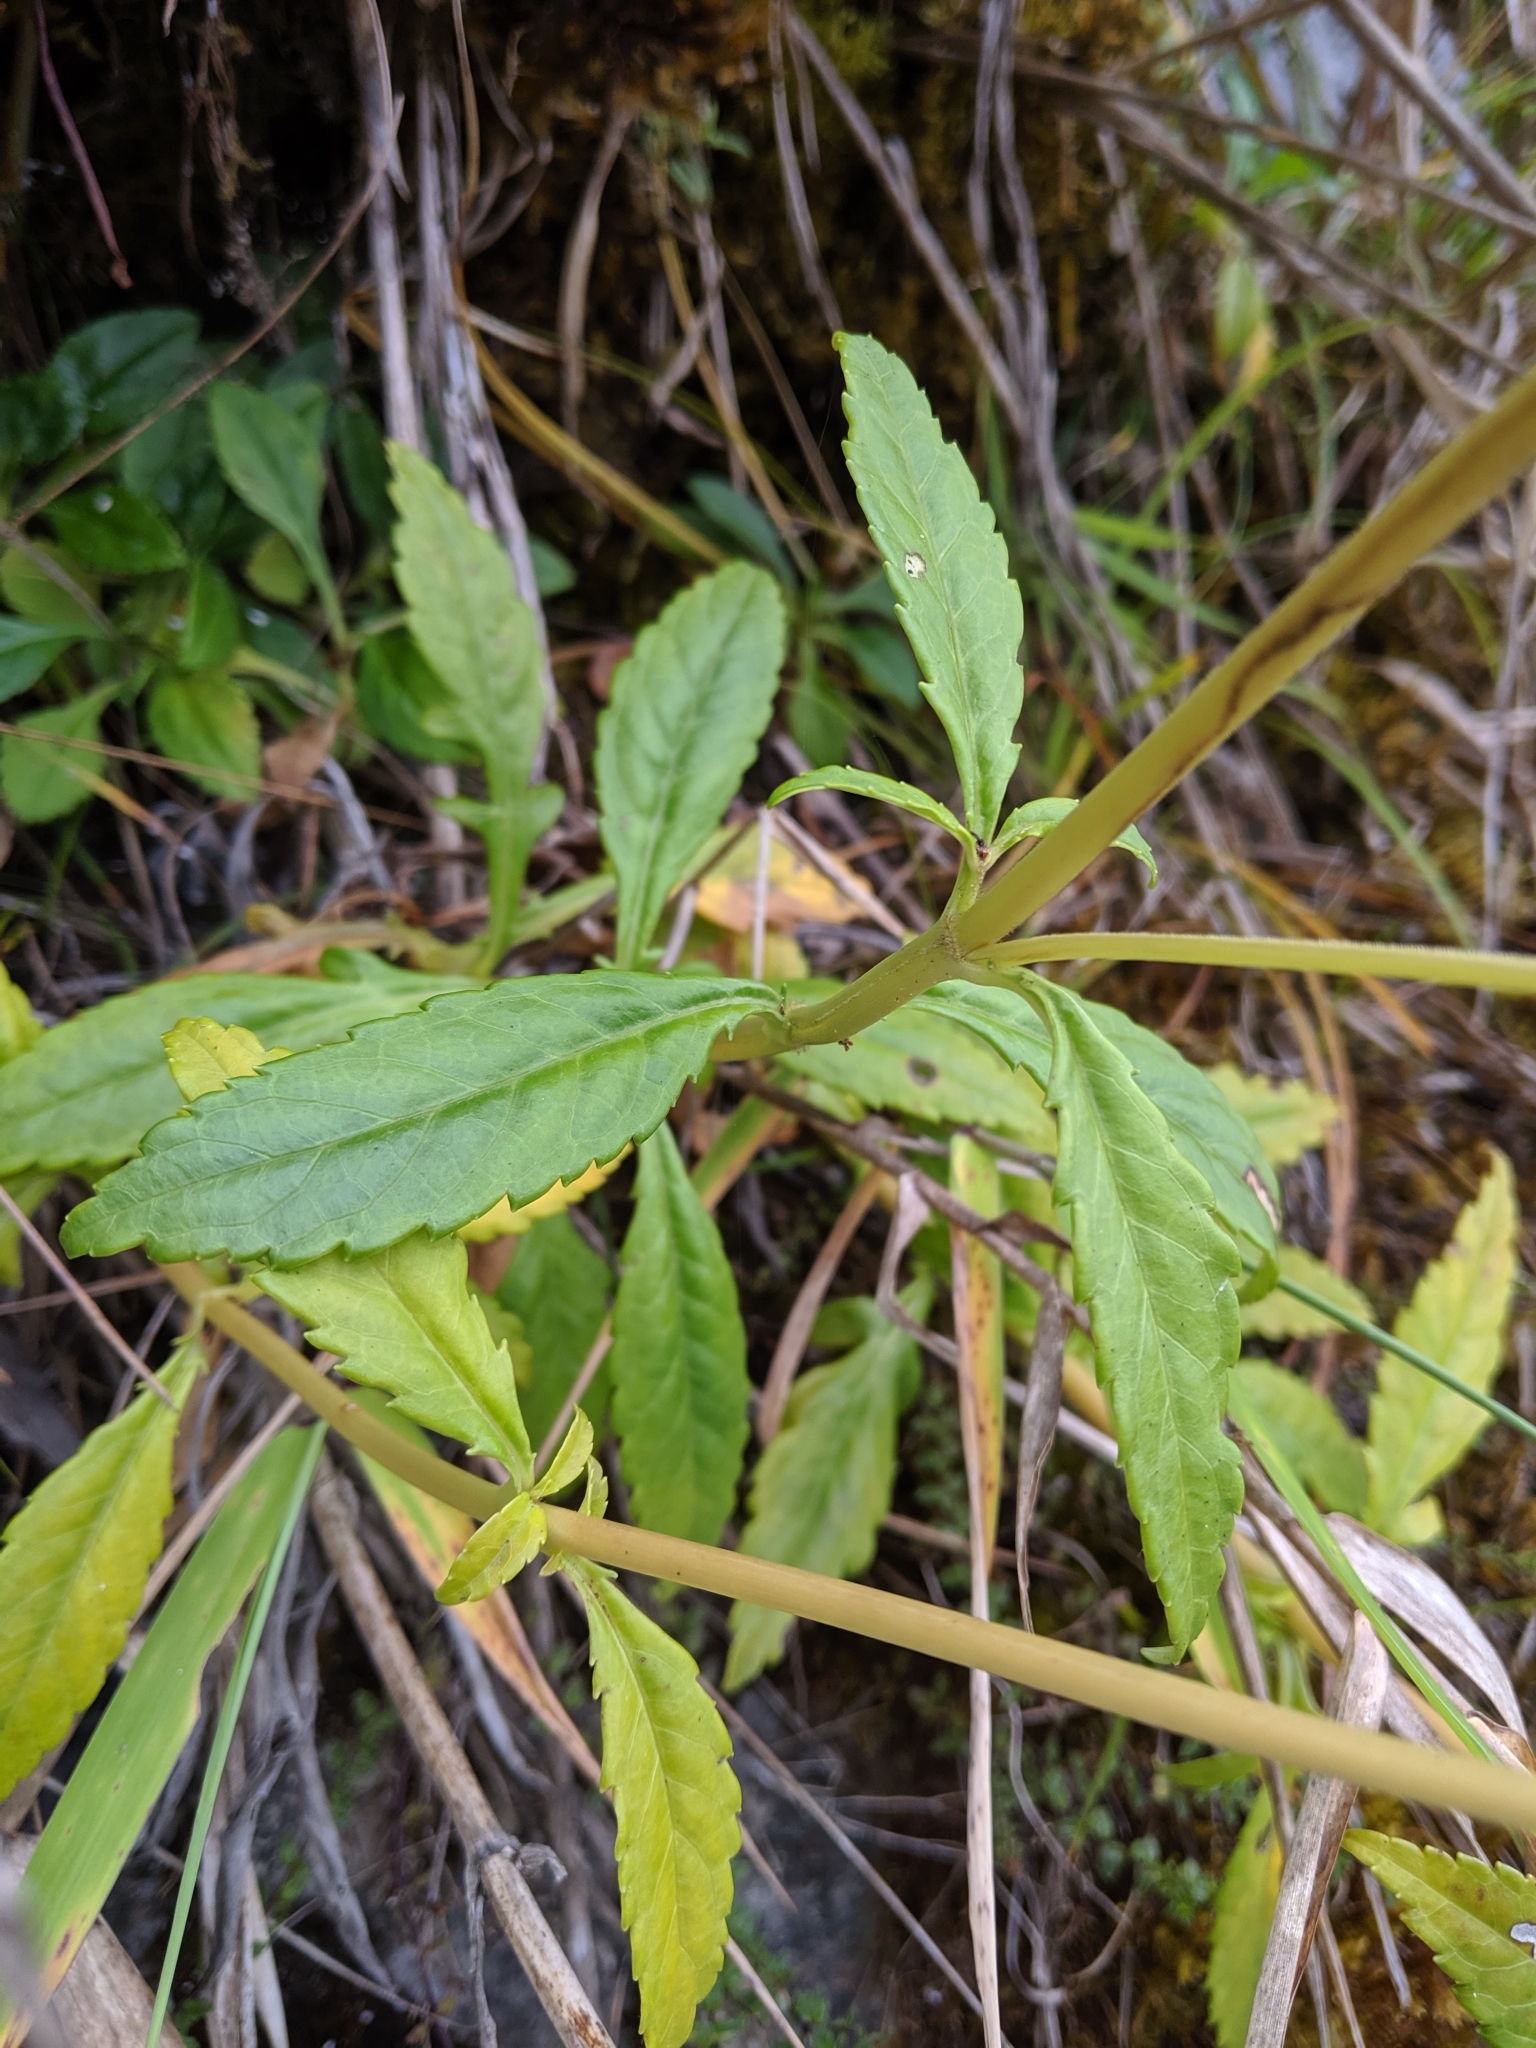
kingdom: Plantae
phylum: Tracheophyta
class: Magnoliopsida
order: Dipsacales
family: Caprifoliaceae
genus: Patrinia
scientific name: Patrinia glabrifolia
